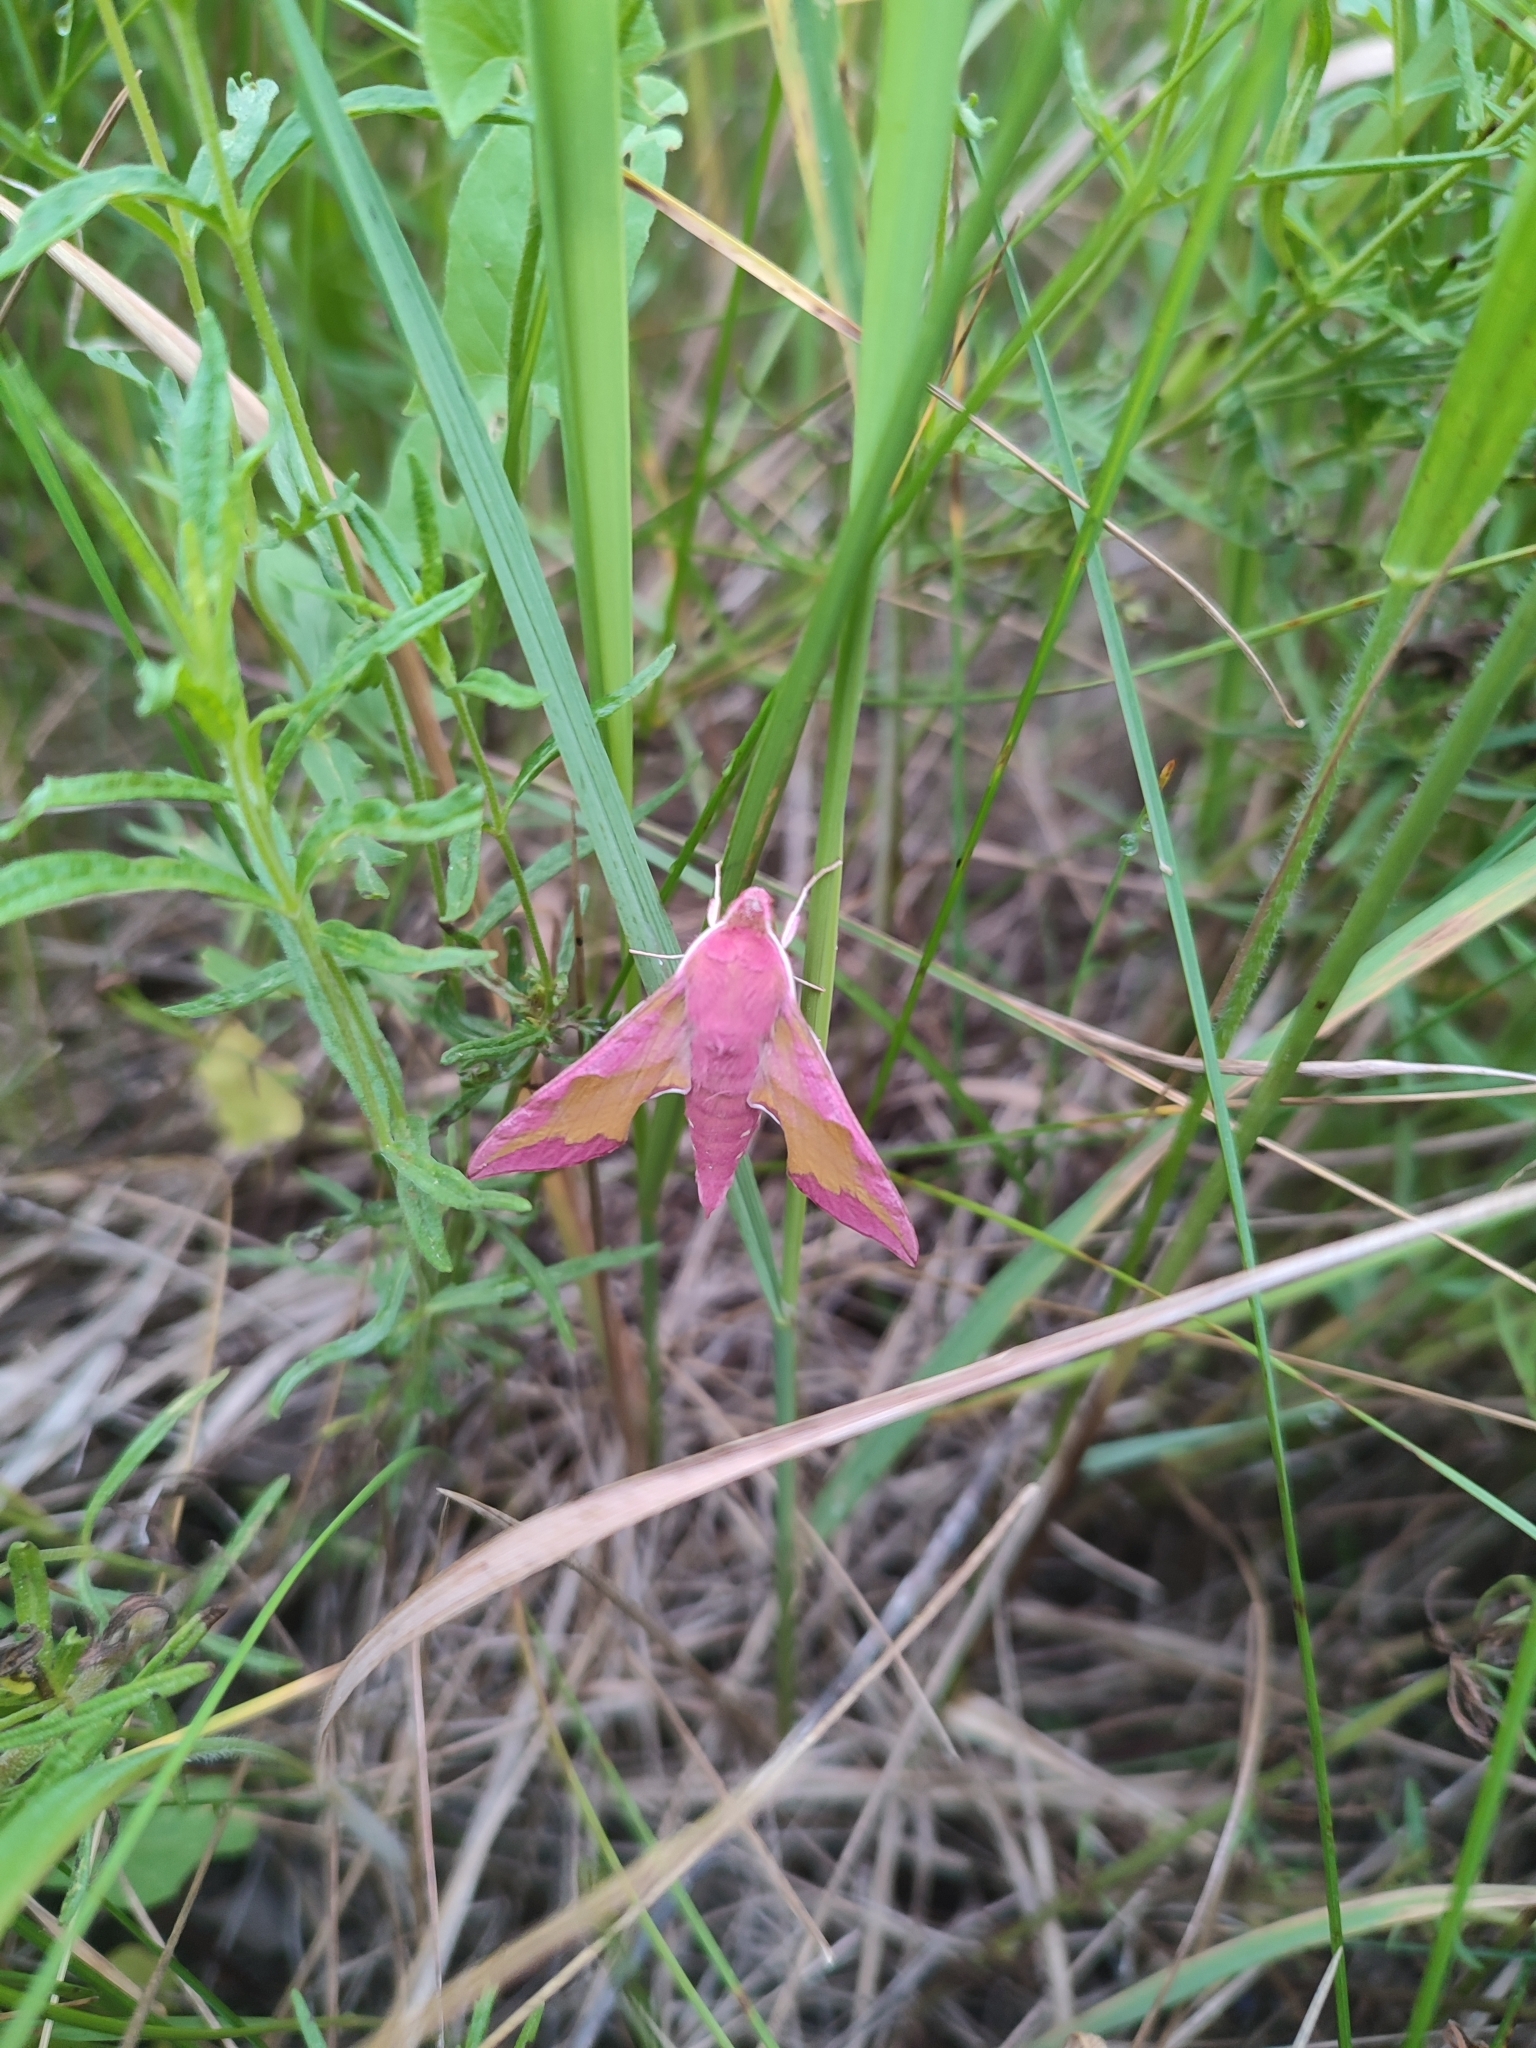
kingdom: Animalia
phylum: Arthropoda
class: Insecta
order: Lepidoptera
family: Sphingidae
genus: Deilephila
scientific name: Deilephila porcellus
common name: Small elephant hawk-moth
